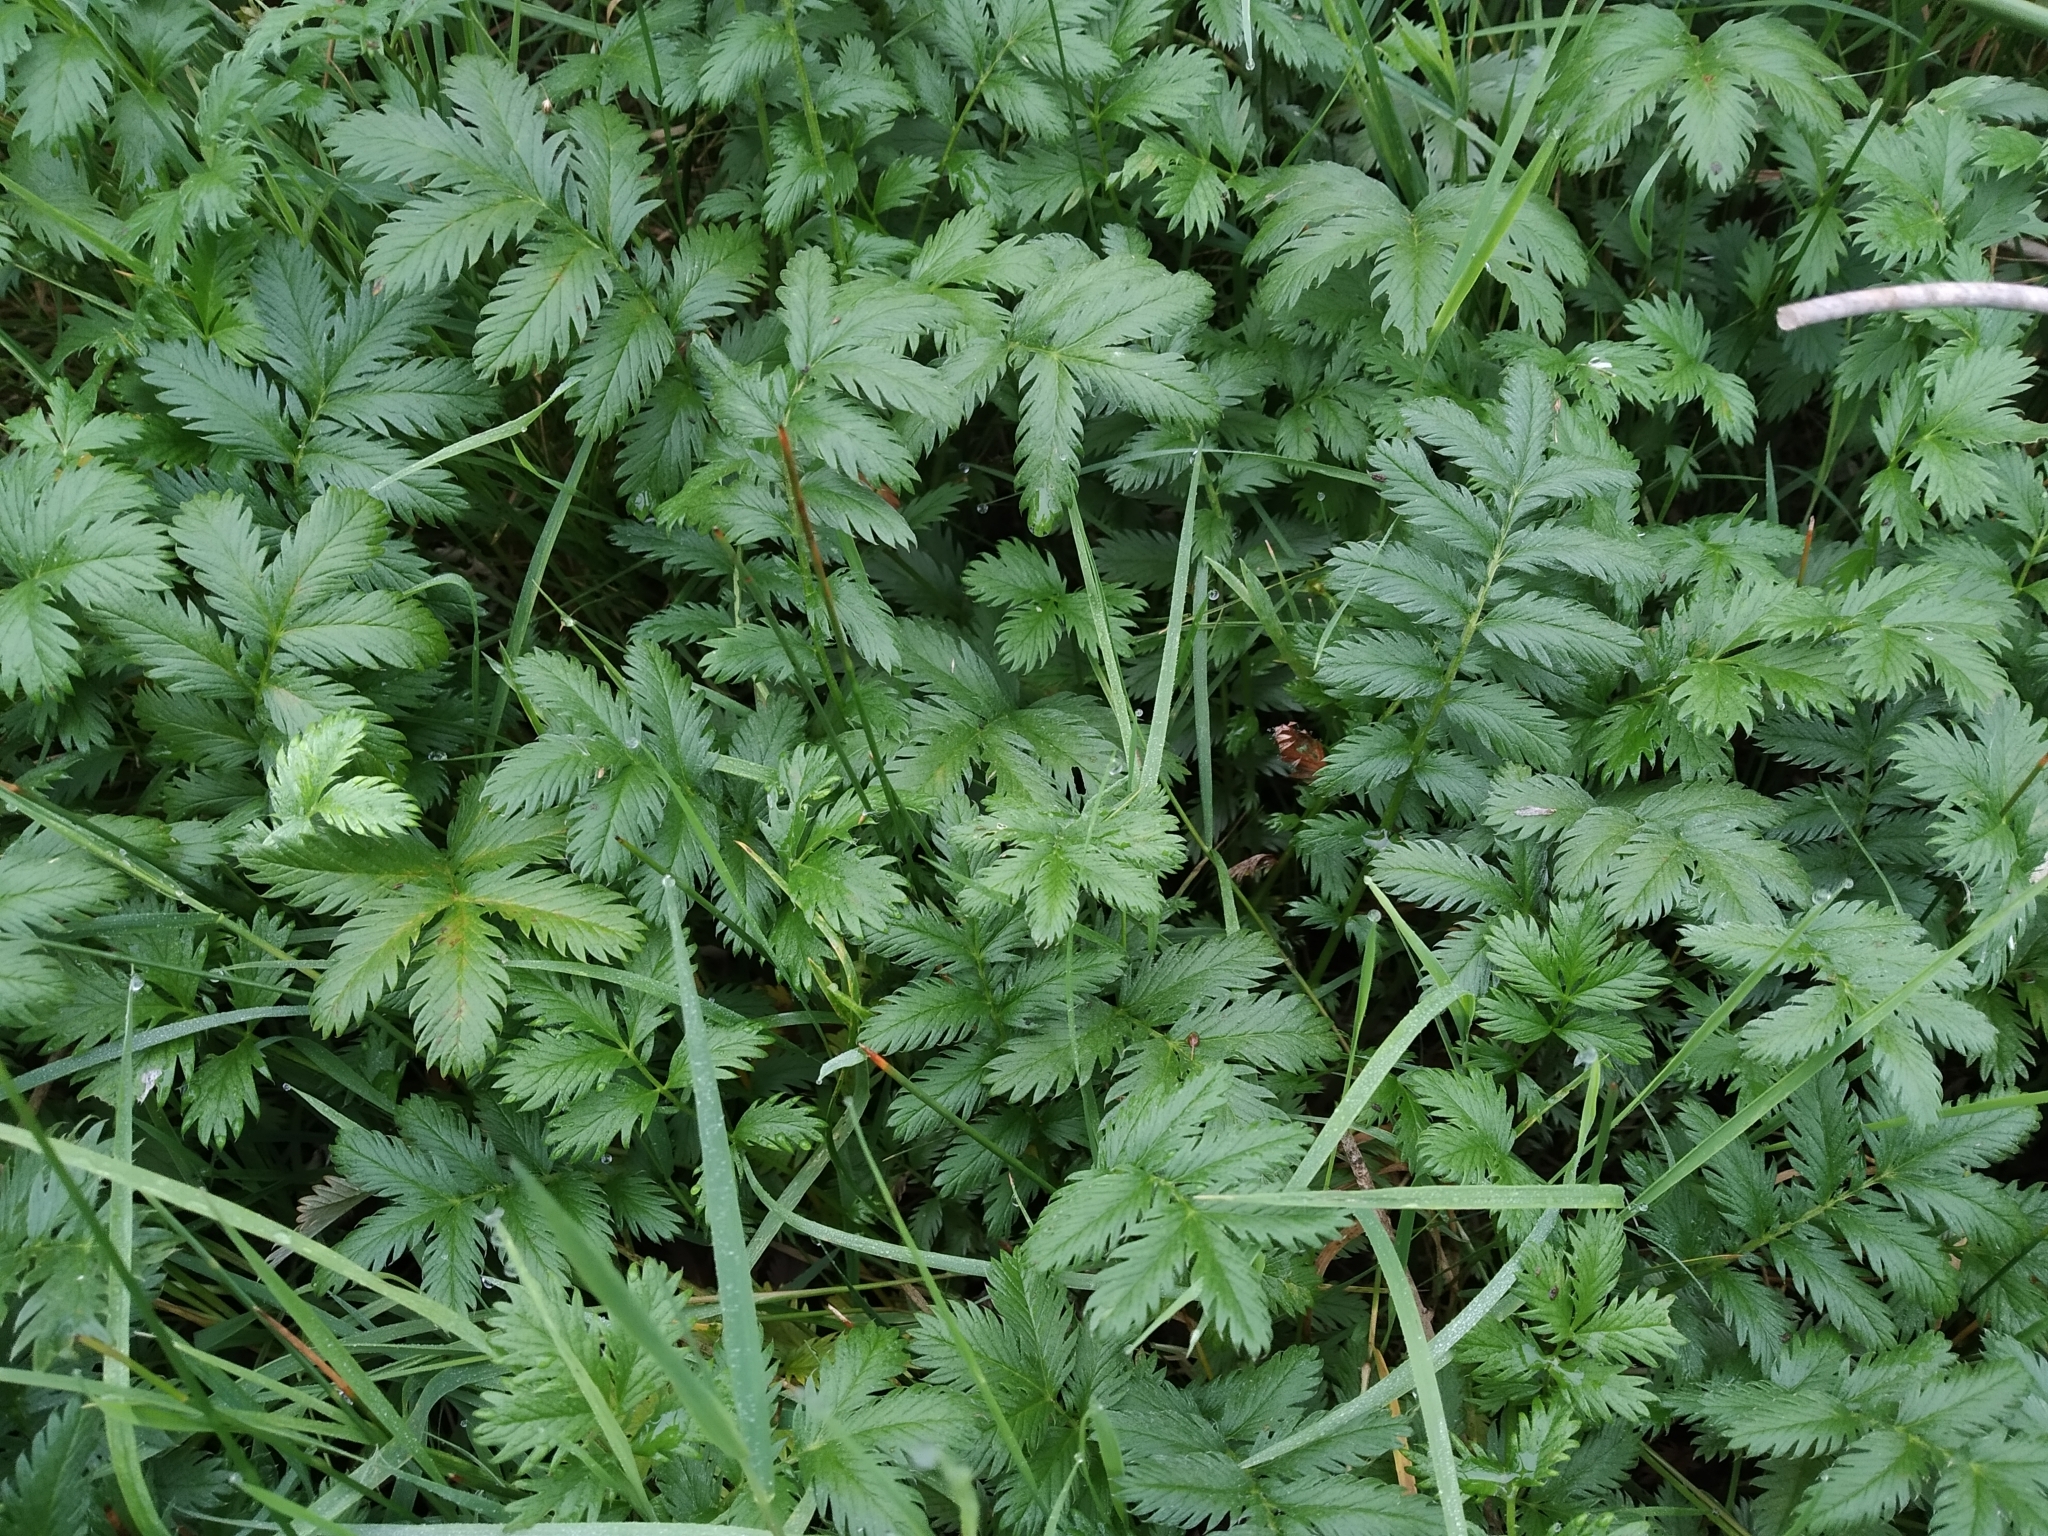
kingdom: Plantae
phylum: Tracheophyta
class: Magnoliopsida
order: Rosales
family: Rosaceae
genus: Argentina
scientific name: Argentina anserina
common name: Common silverweed
